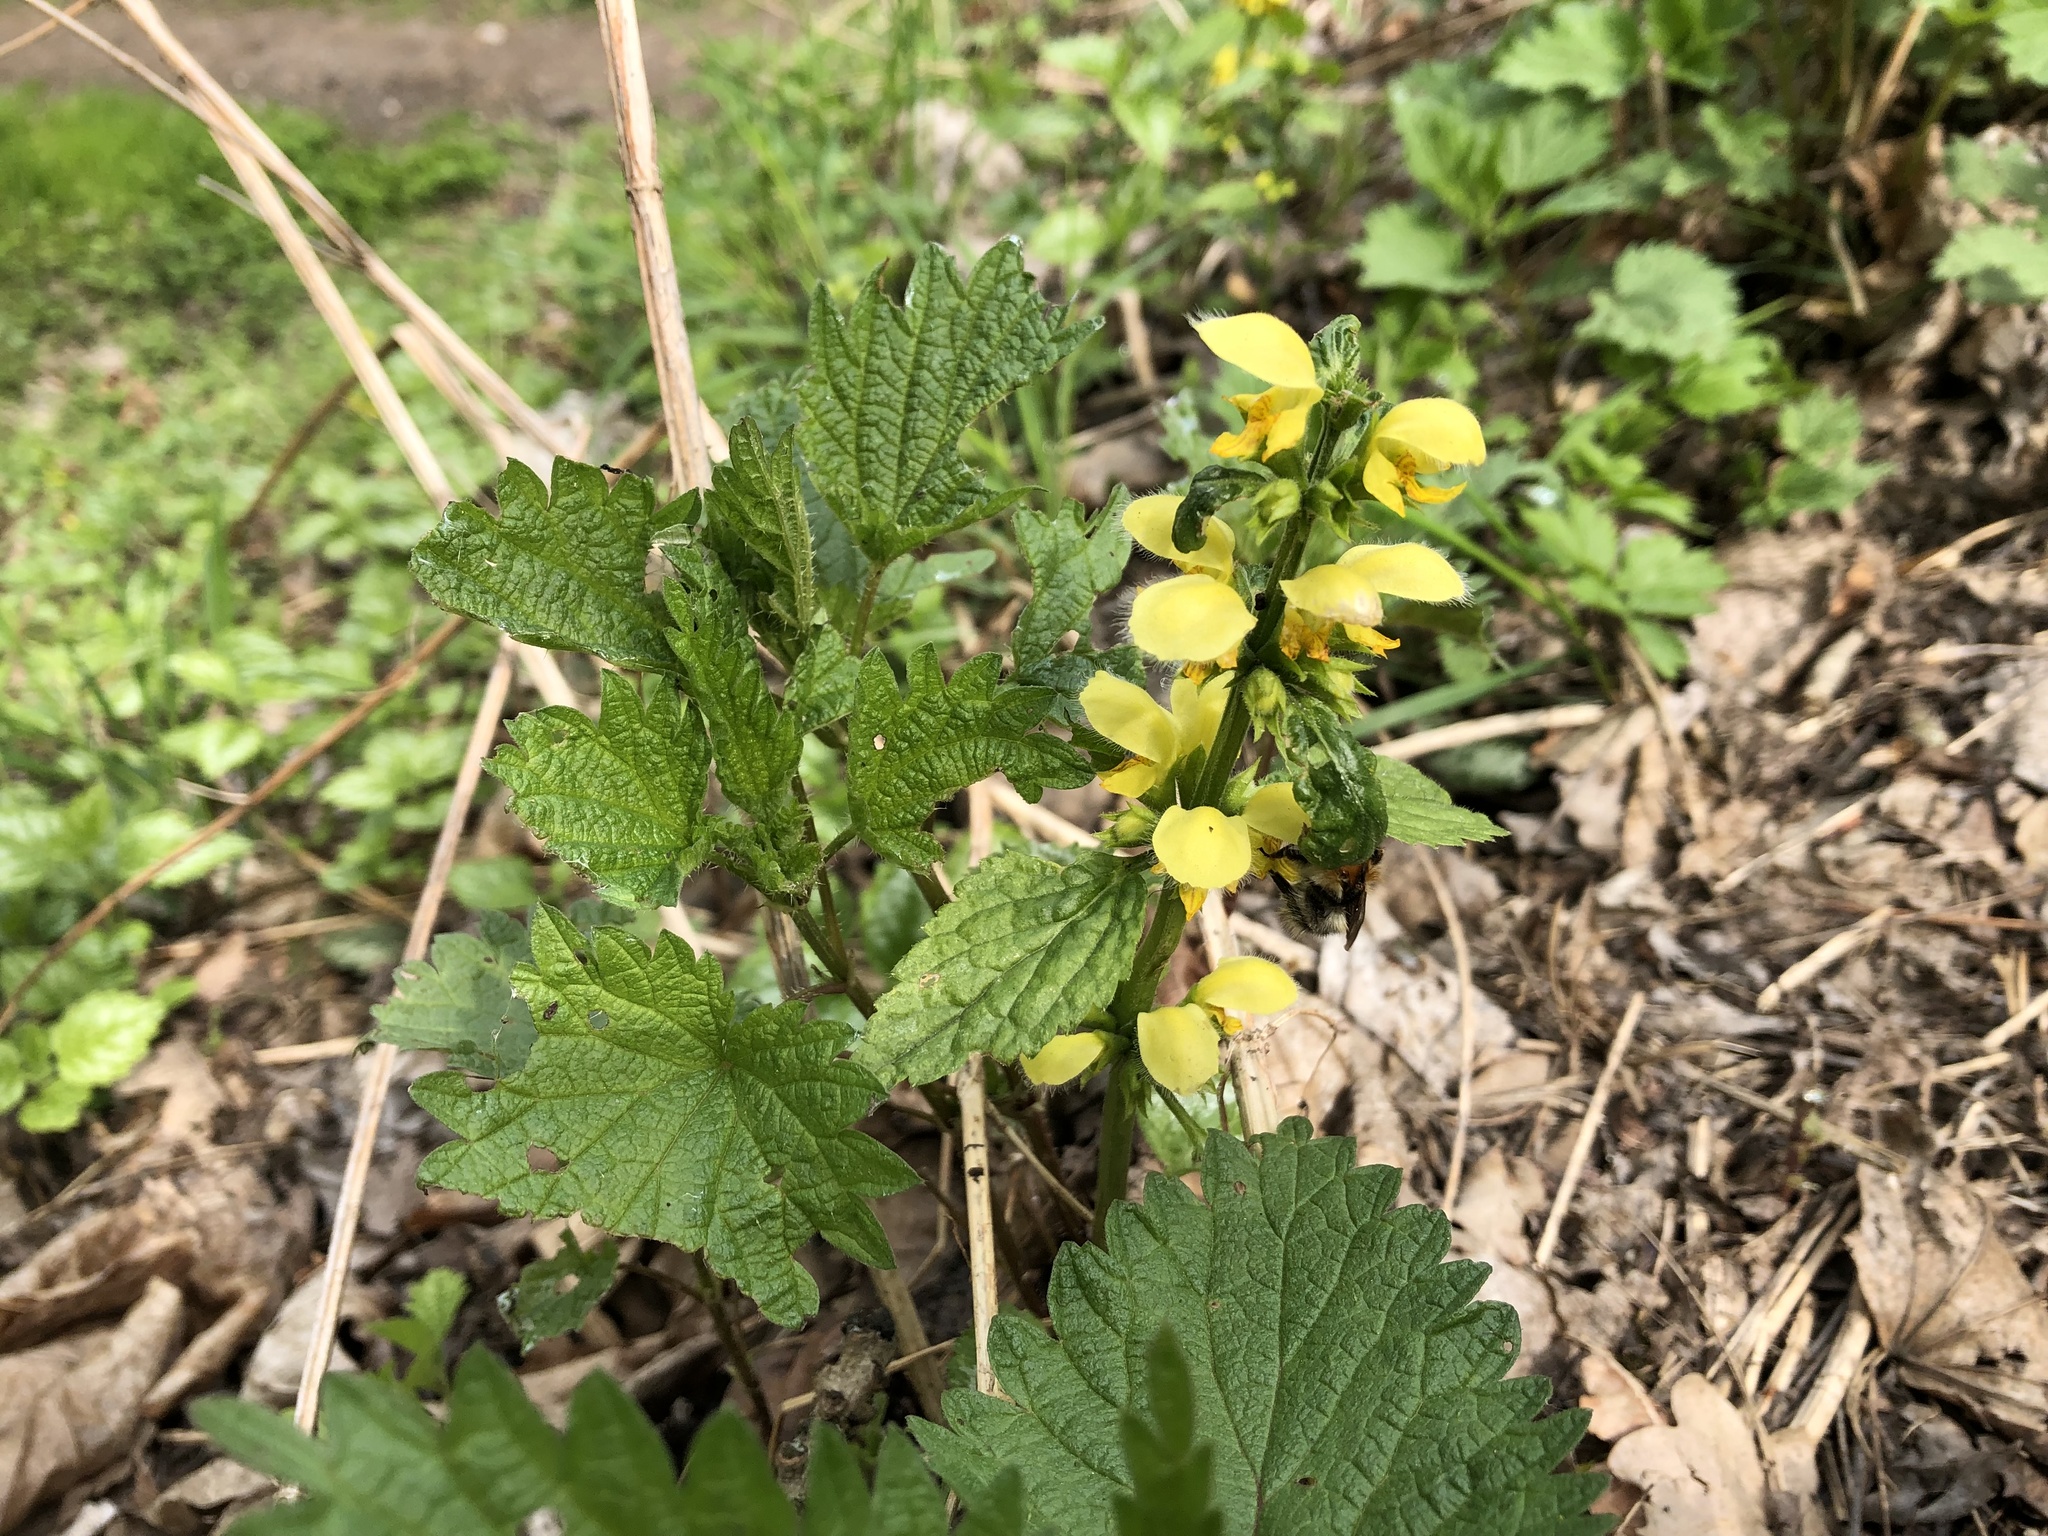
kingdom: Plantae
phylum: Tracheophyta
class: Magnoliopsida
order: Lamiales
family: Lamiaceae
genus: Lamium
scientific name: Lamium galeobdolon
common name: Yellow archangel
